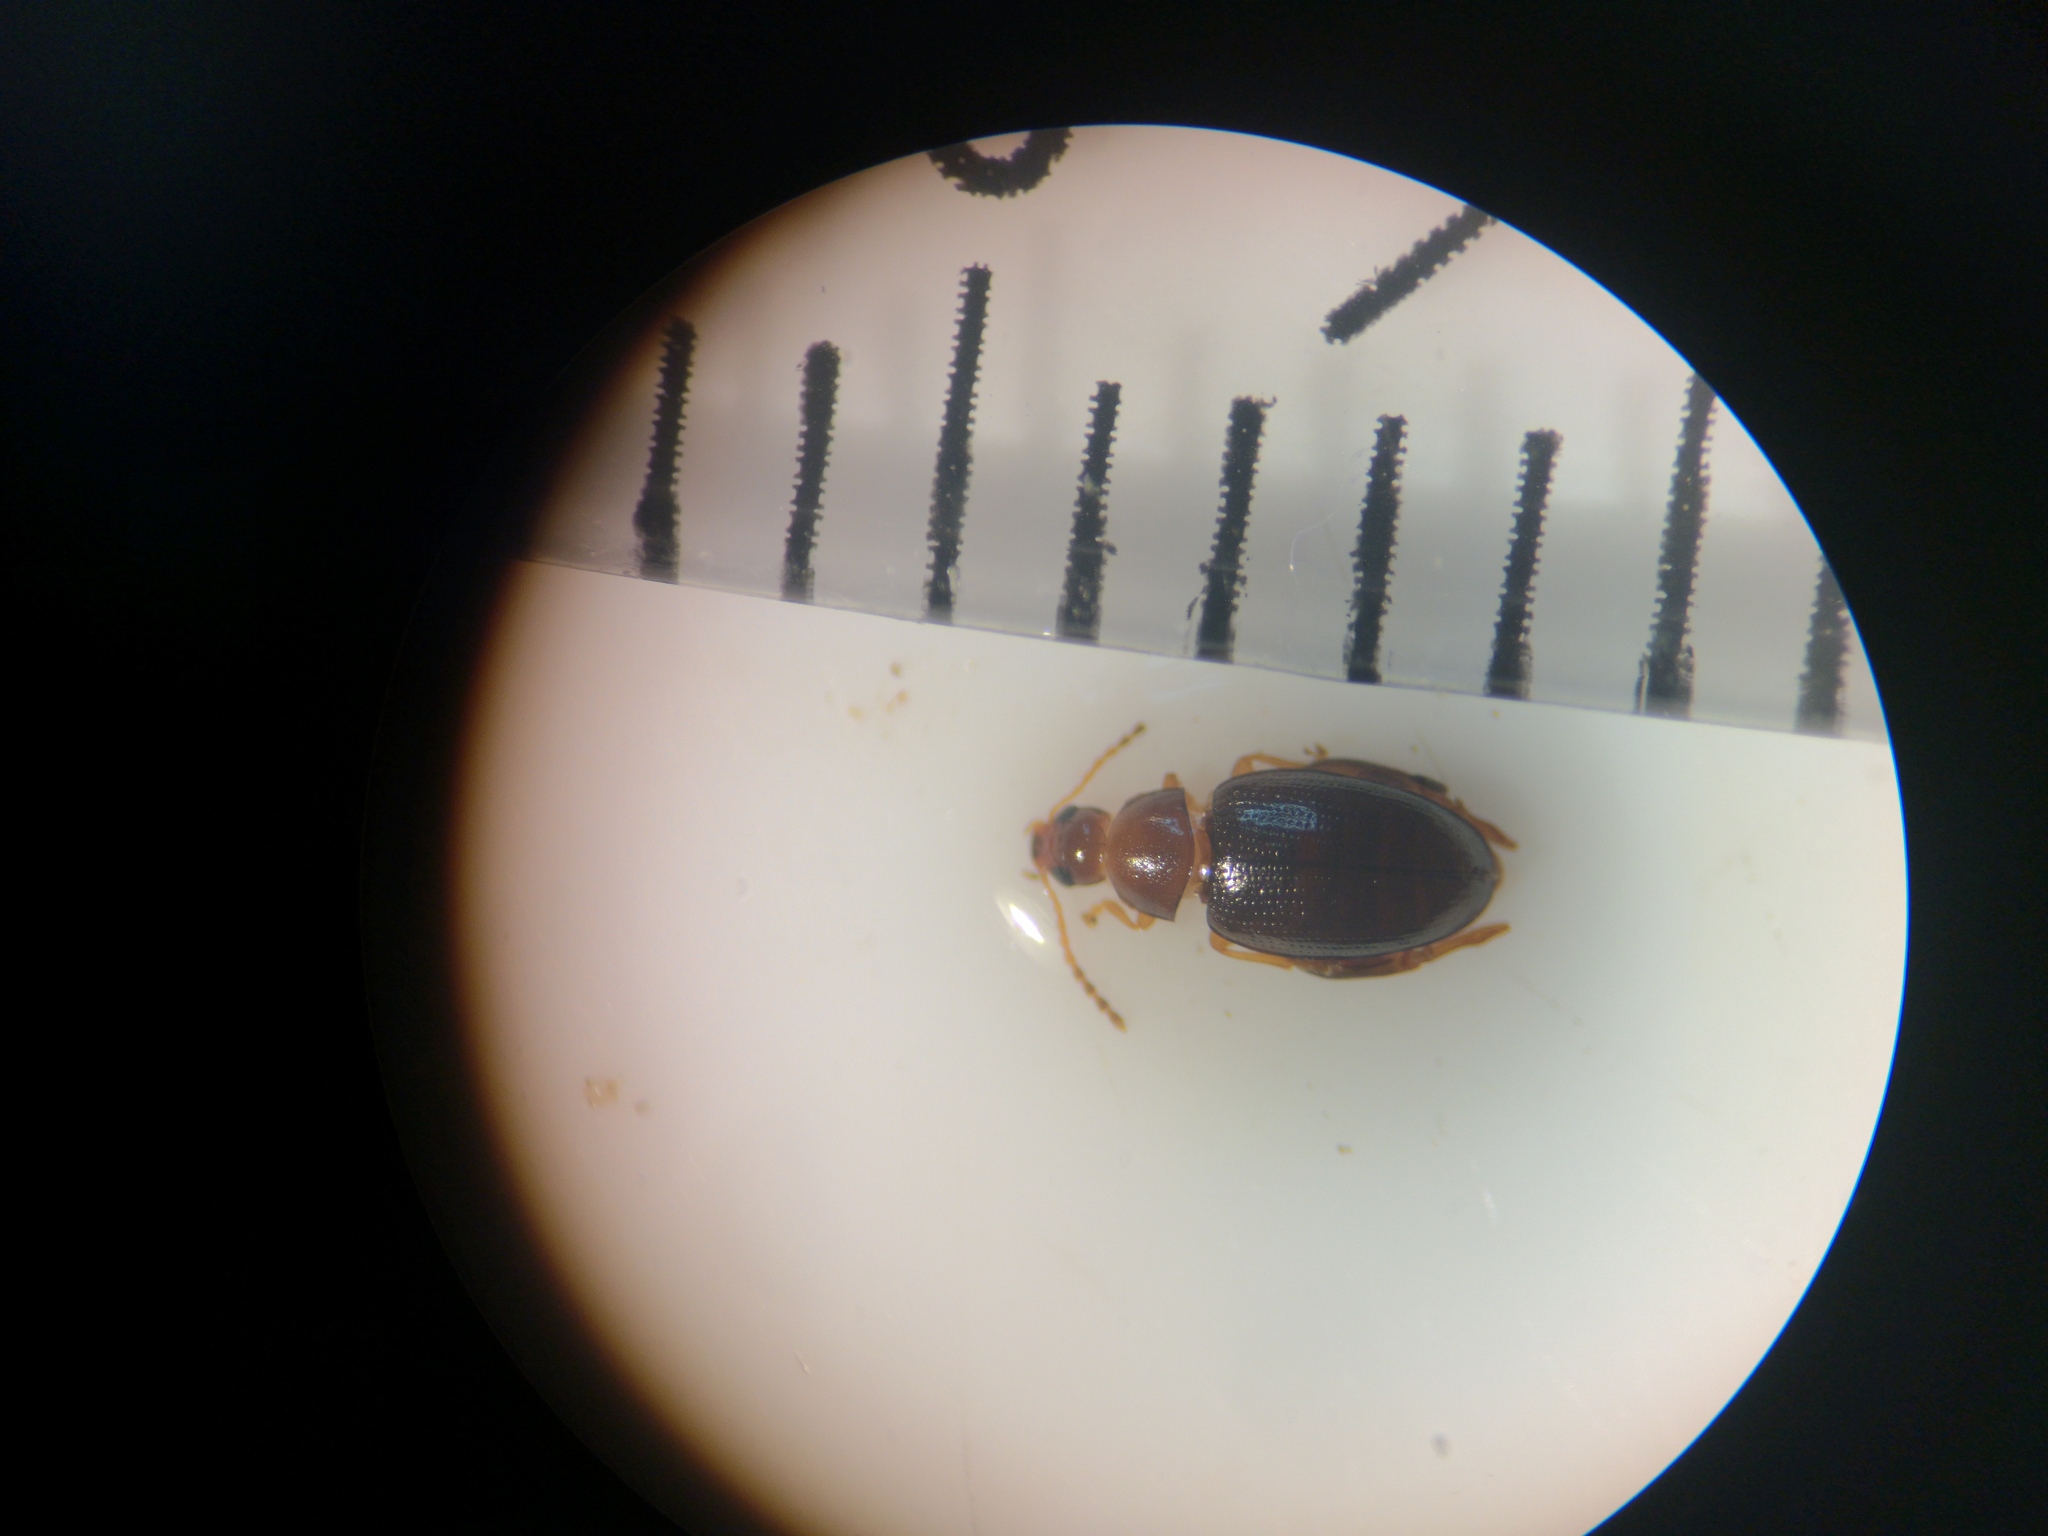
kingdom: Animalia
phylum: Arthropoda
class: Insecta
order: Coleoptera
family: Chrysomelidae
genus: Psylliodes
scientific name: Psylliodes picinus
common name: Leaf beetle
